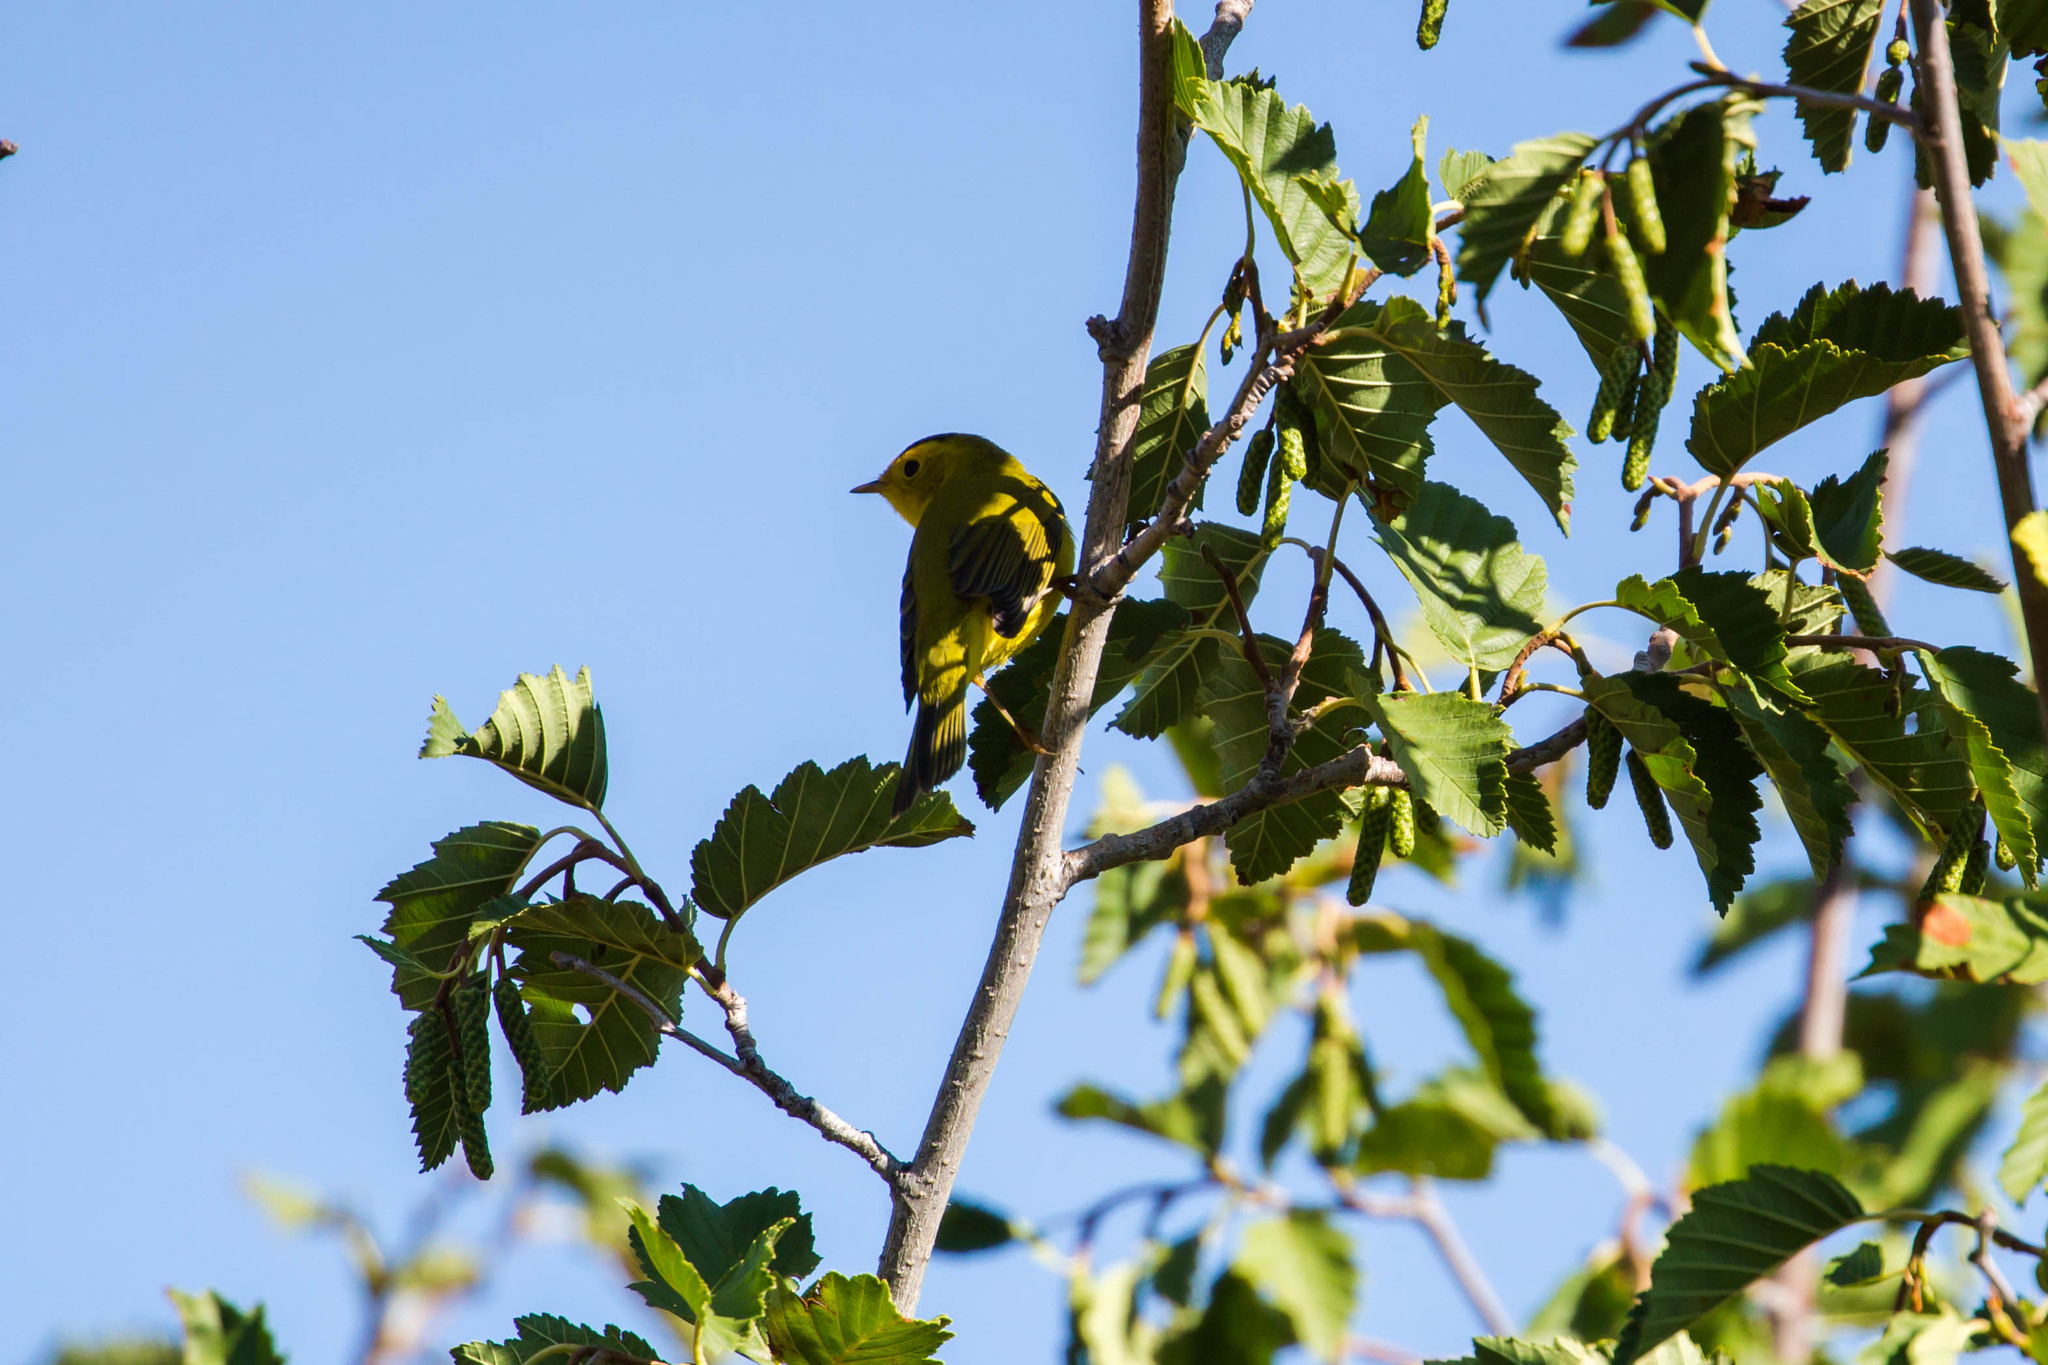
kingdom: Animalia
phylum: Chordata
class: Aves
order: Passeriformes
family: Parulidae
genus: Cardellina
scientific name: Cardellina pusilla
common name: Wilson's warbler
